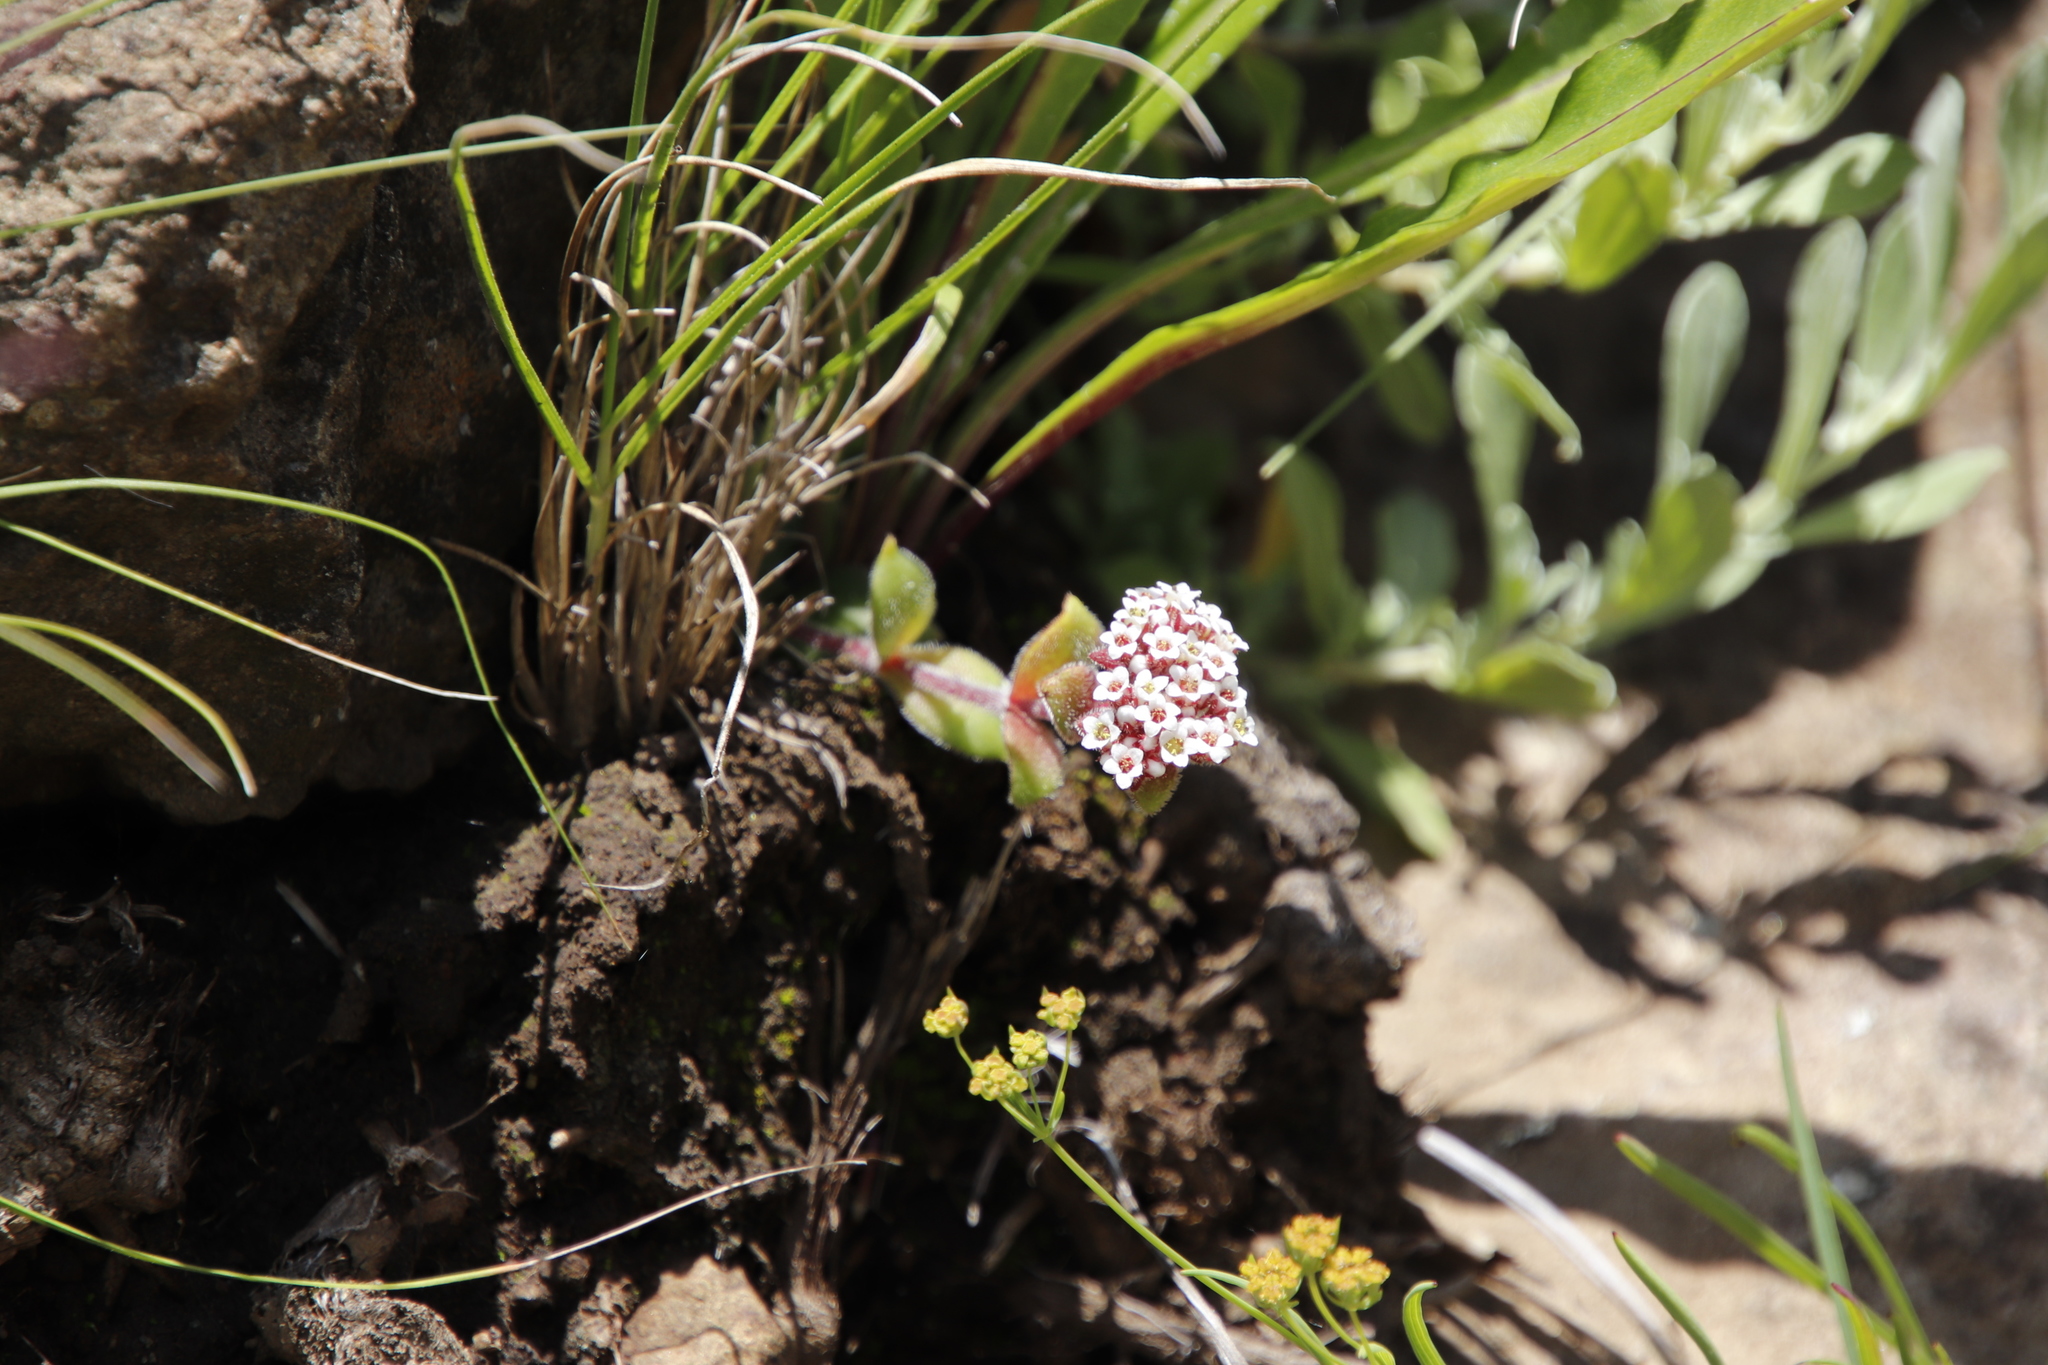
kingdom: Plantae
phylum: Tracheophyta
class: Magnoliopsida
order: Saxifragales
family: Crassulaceae
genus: Crassula
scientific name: Crassula obovata
